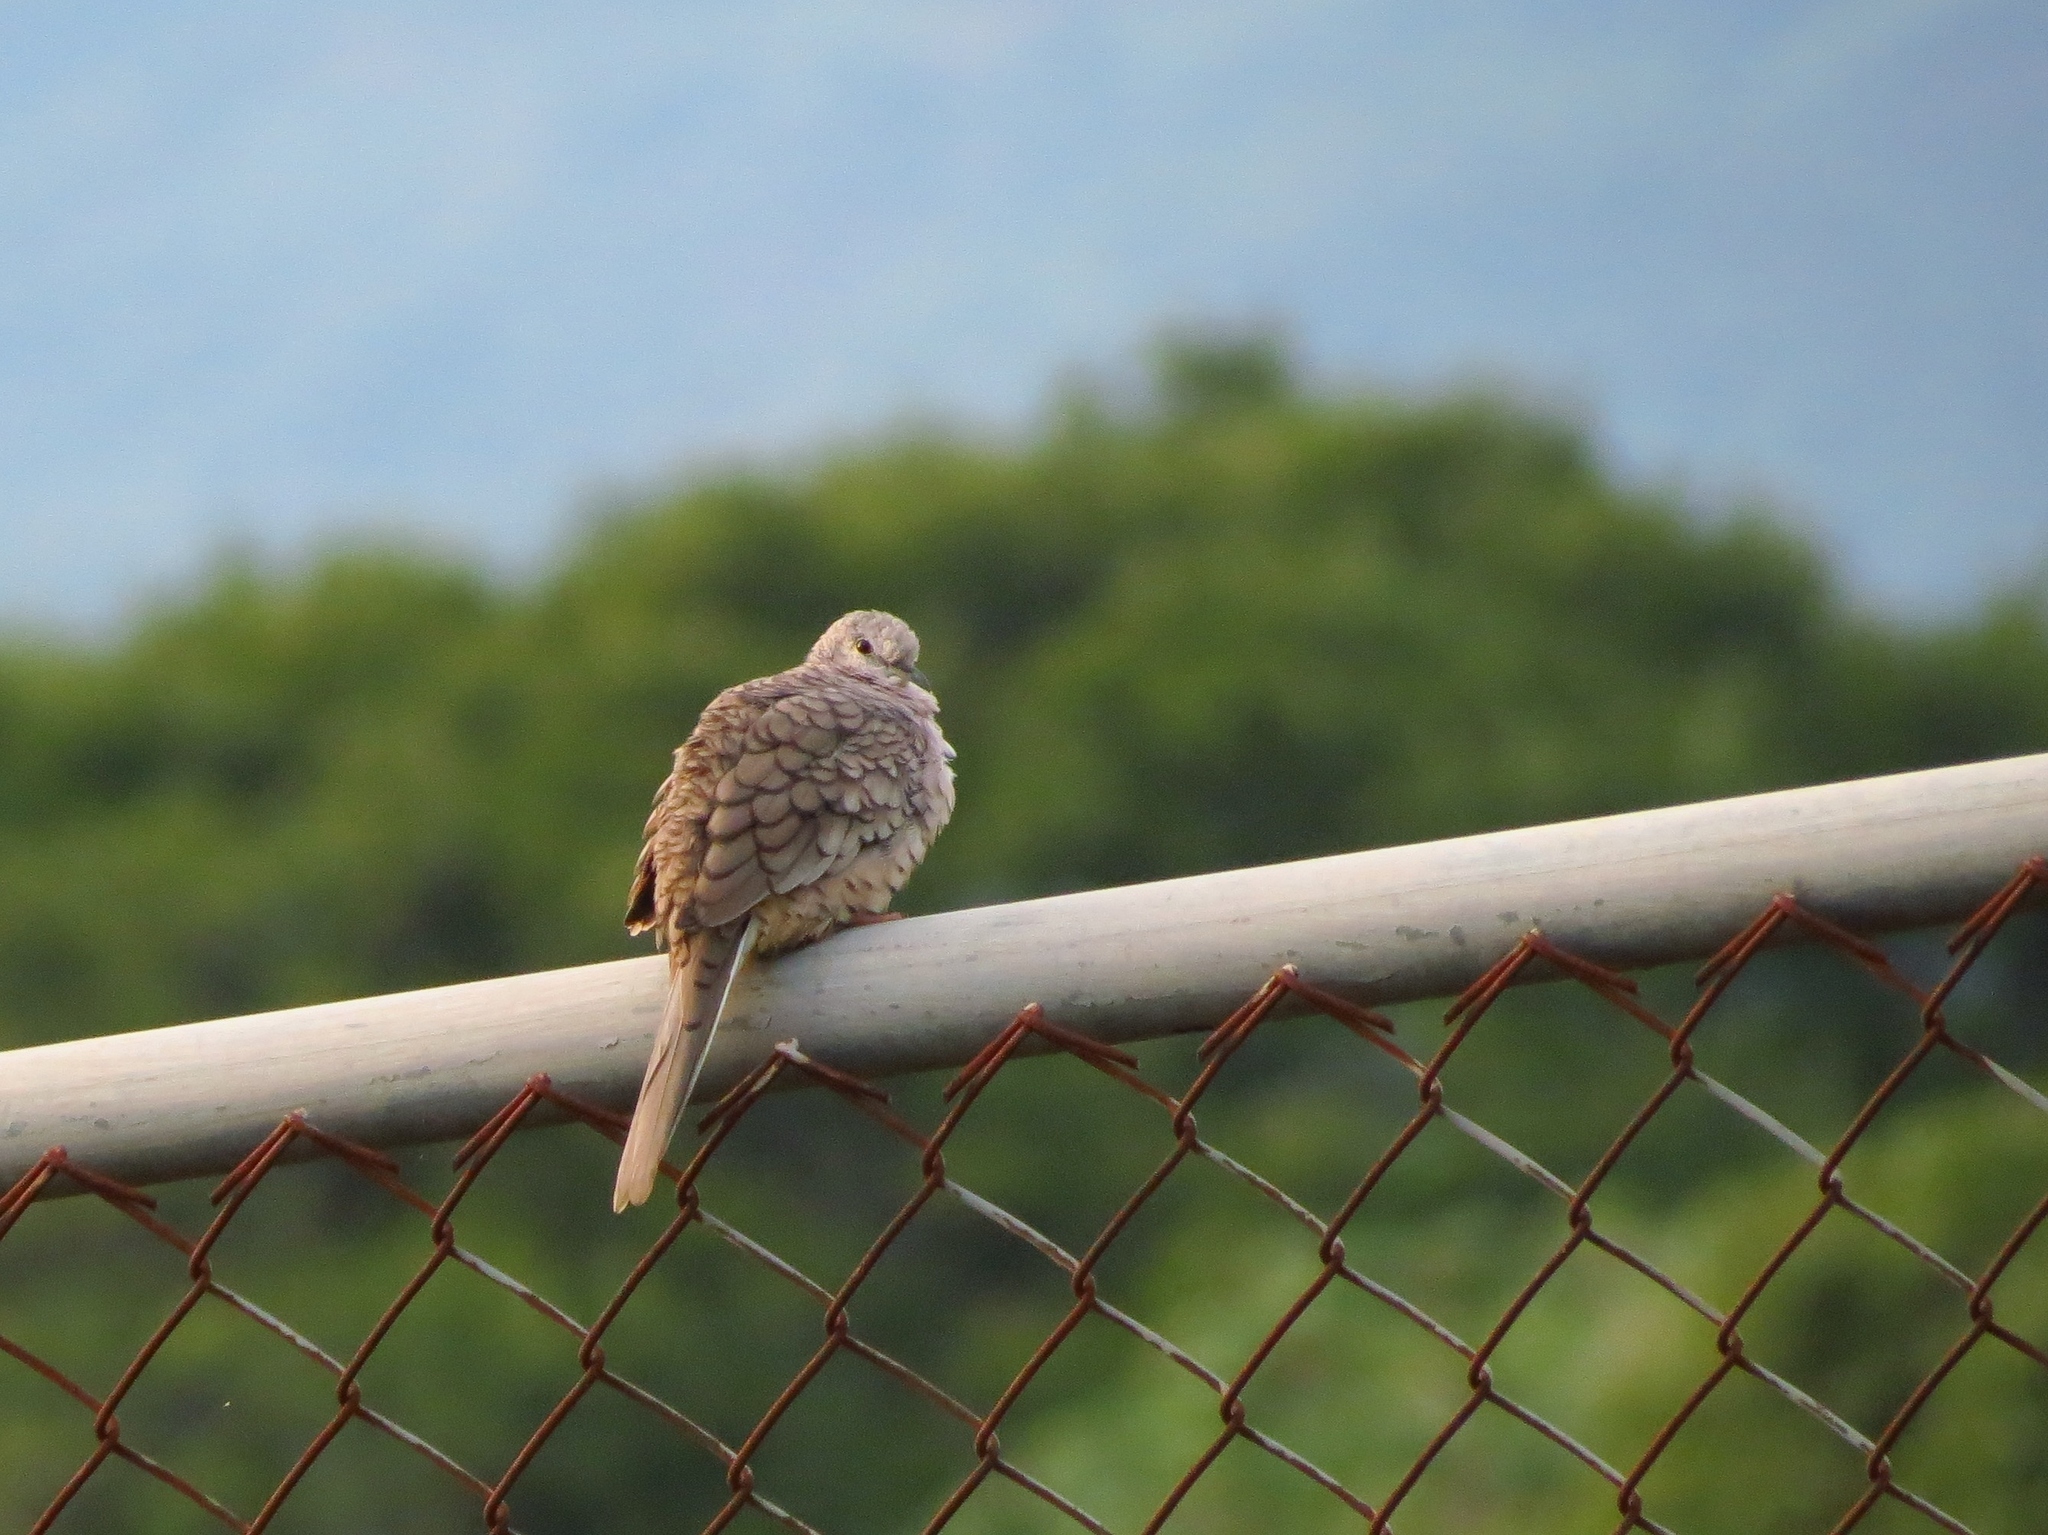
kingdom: Animalia
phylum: Chordata
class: Aves
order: Columbiformes
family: Columbidae
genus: Columbina
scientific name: Columbina inca
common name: Inca dove
